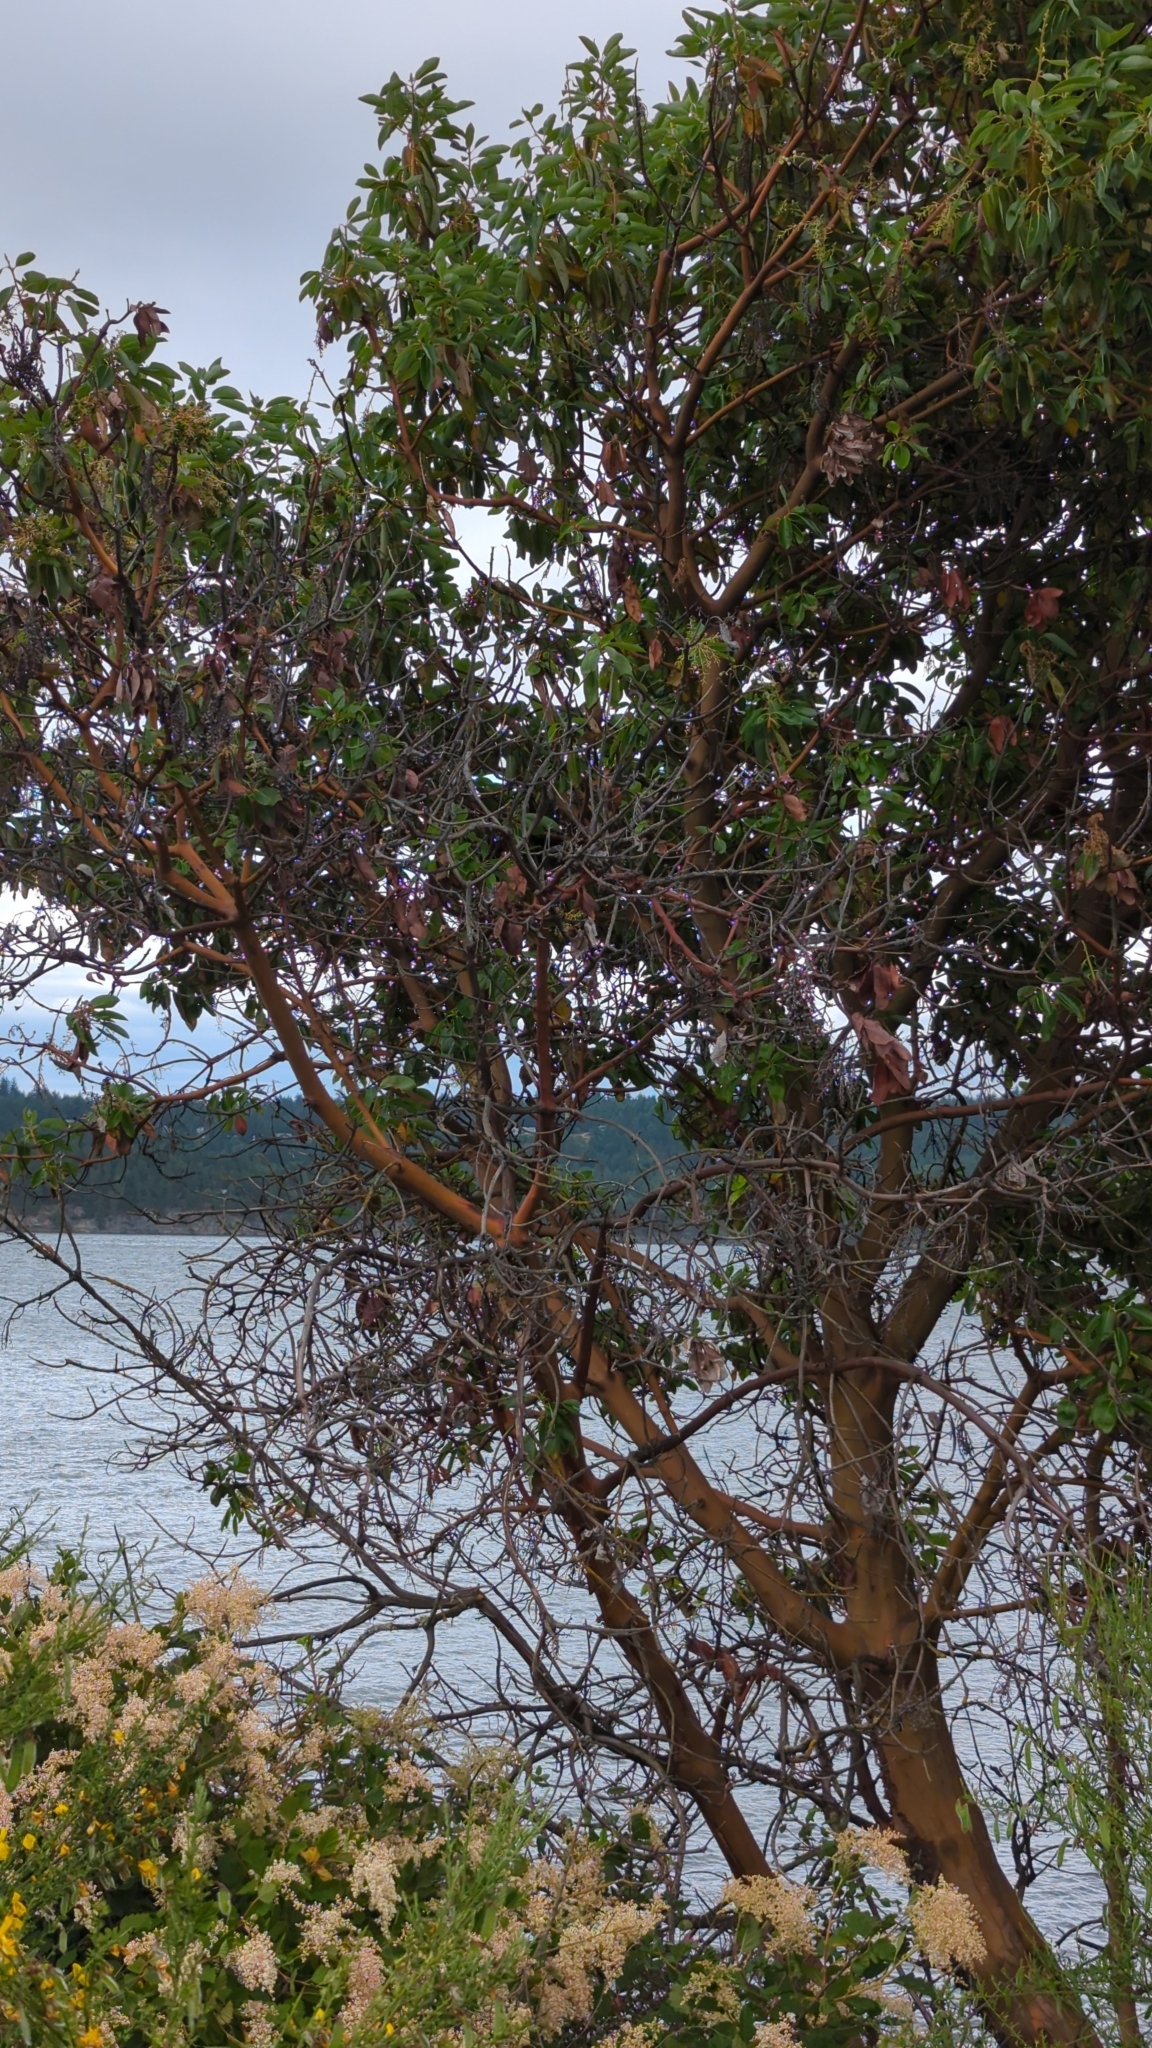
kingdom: Plantae
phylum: Tracheophyta
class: Magnoliopsida
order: Ericales
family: Ericaceae
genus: Arbutus
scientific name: Arbutus menziesii
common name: Pacific madrone
